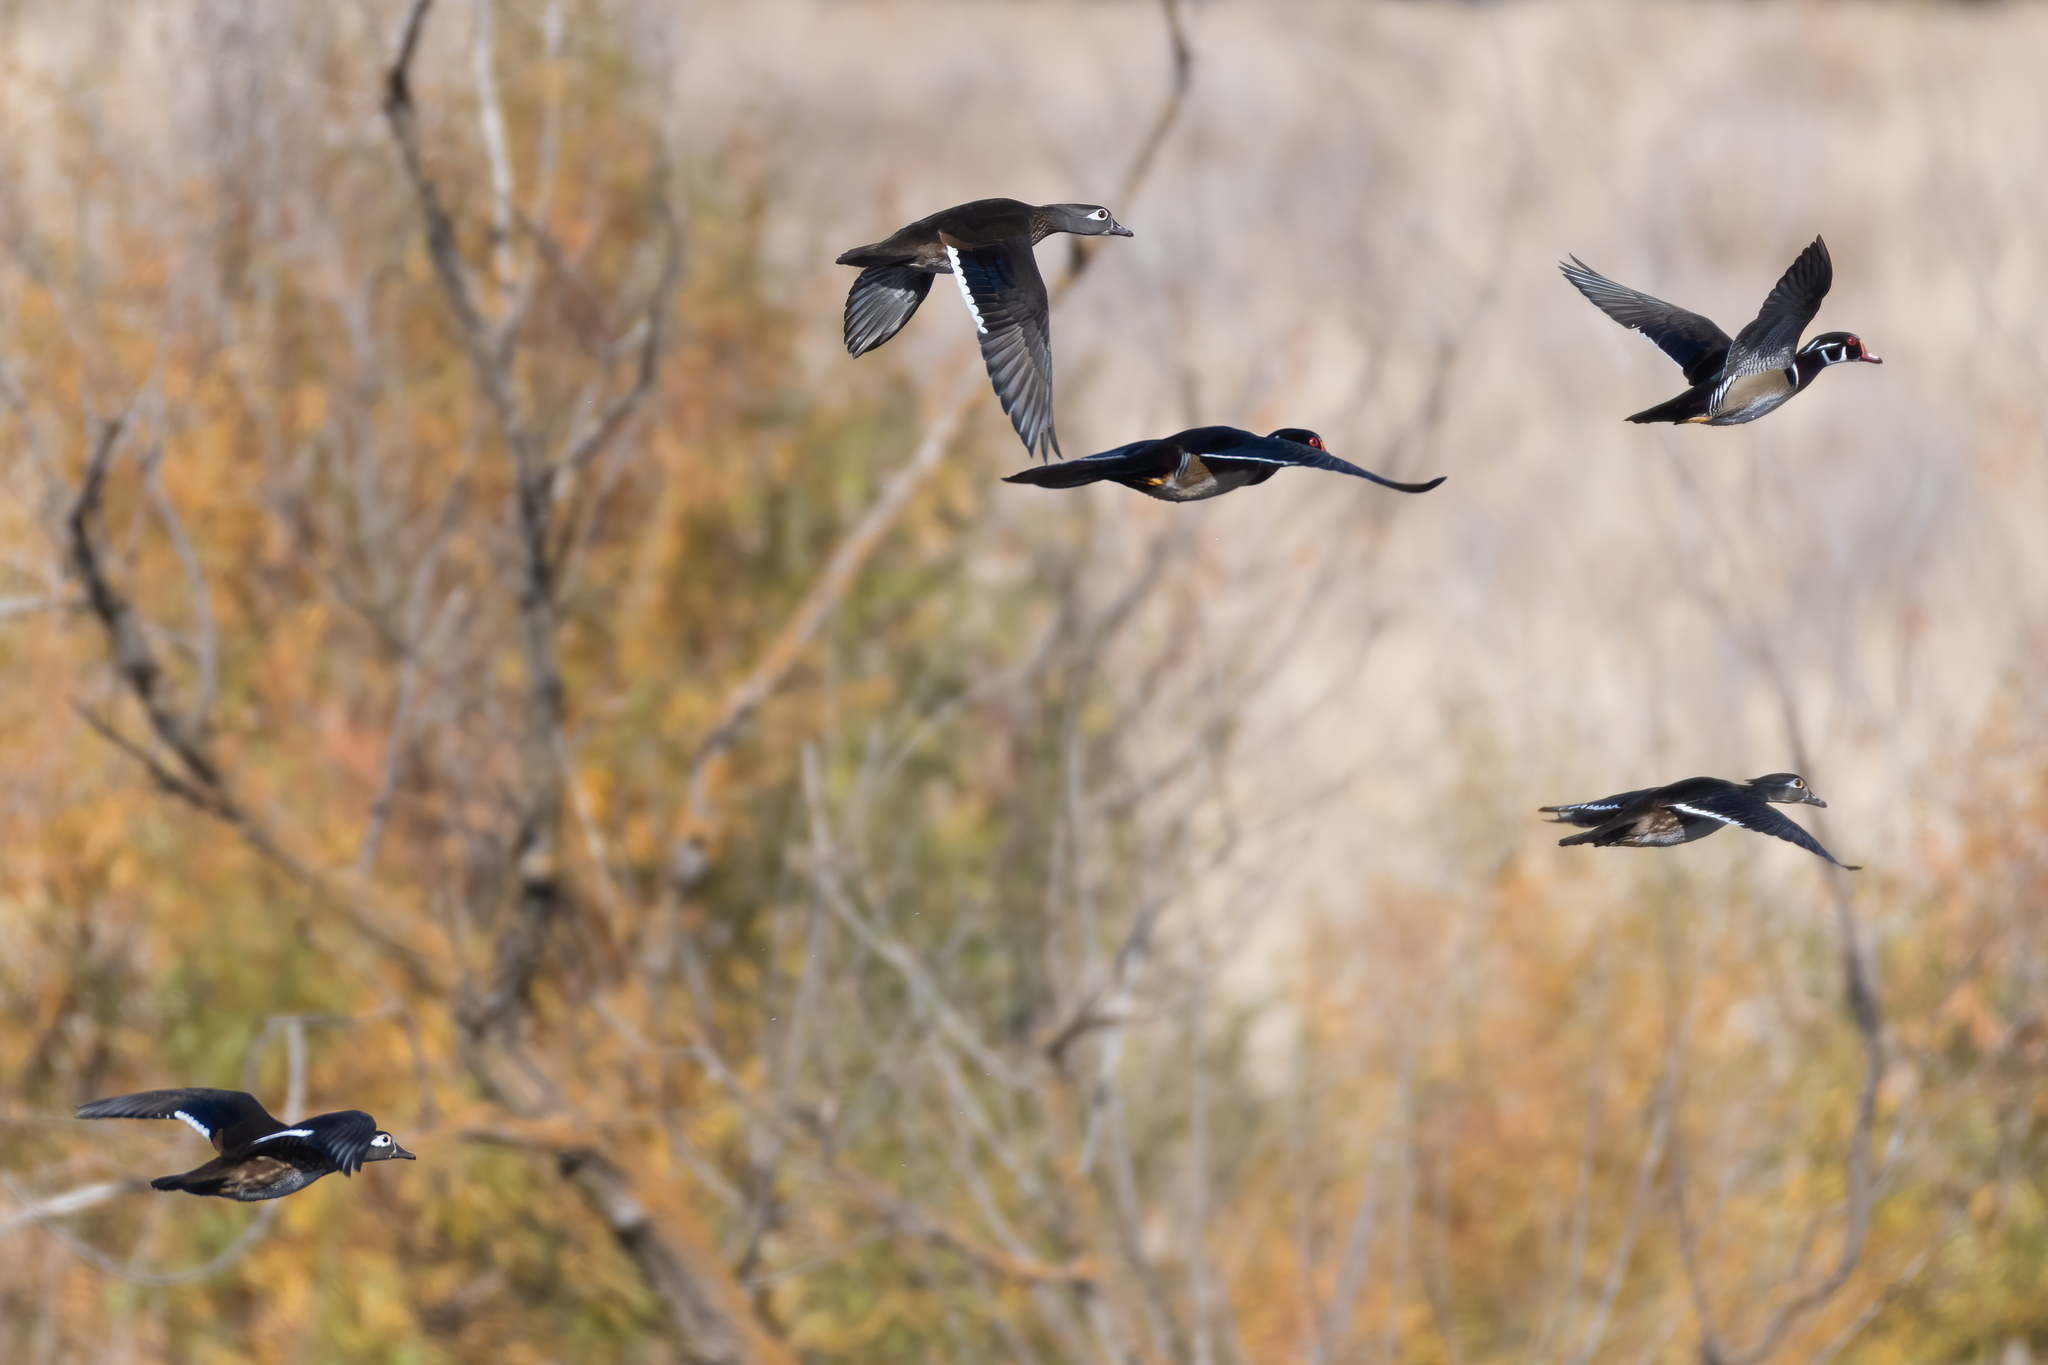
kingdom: Animalia
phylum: Chordata
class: Aves
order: Anseriformes
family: Anatidae
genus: Aix
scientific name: Aix sponsa
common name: Wood duck
